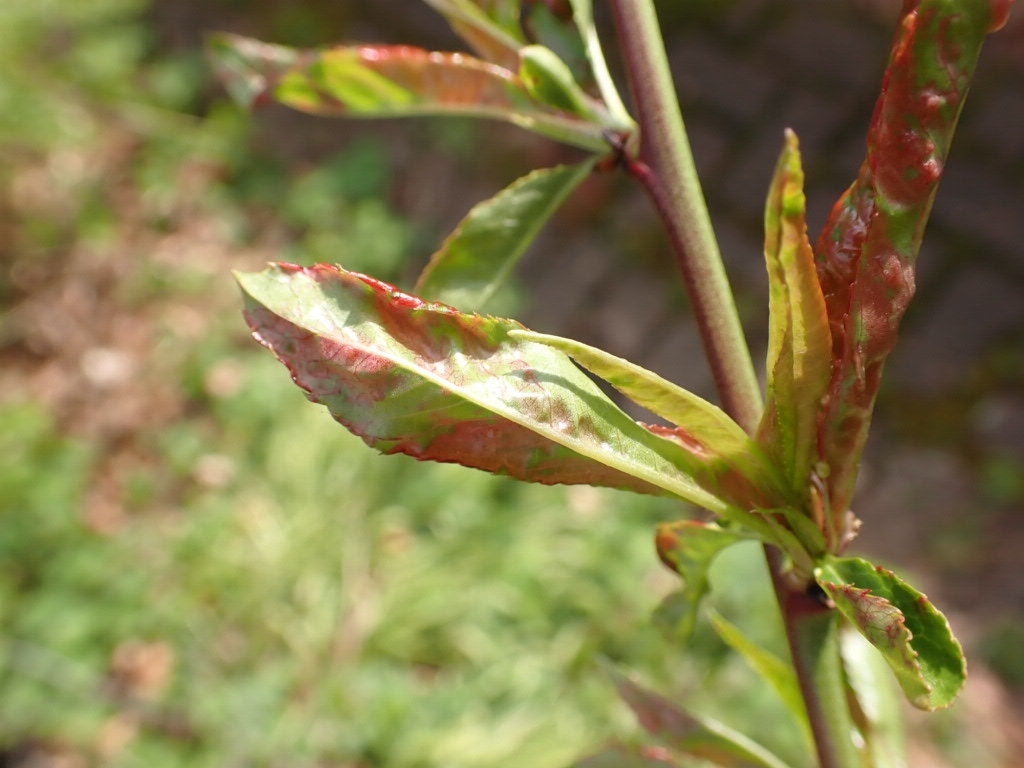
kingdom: Fungi
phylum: Ascomycota
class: Taphrinomycetes
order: Taphrinales
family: Taphrinaceae
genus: Taphrina
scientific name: Taphrina deformans
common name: Peach leaf curl
